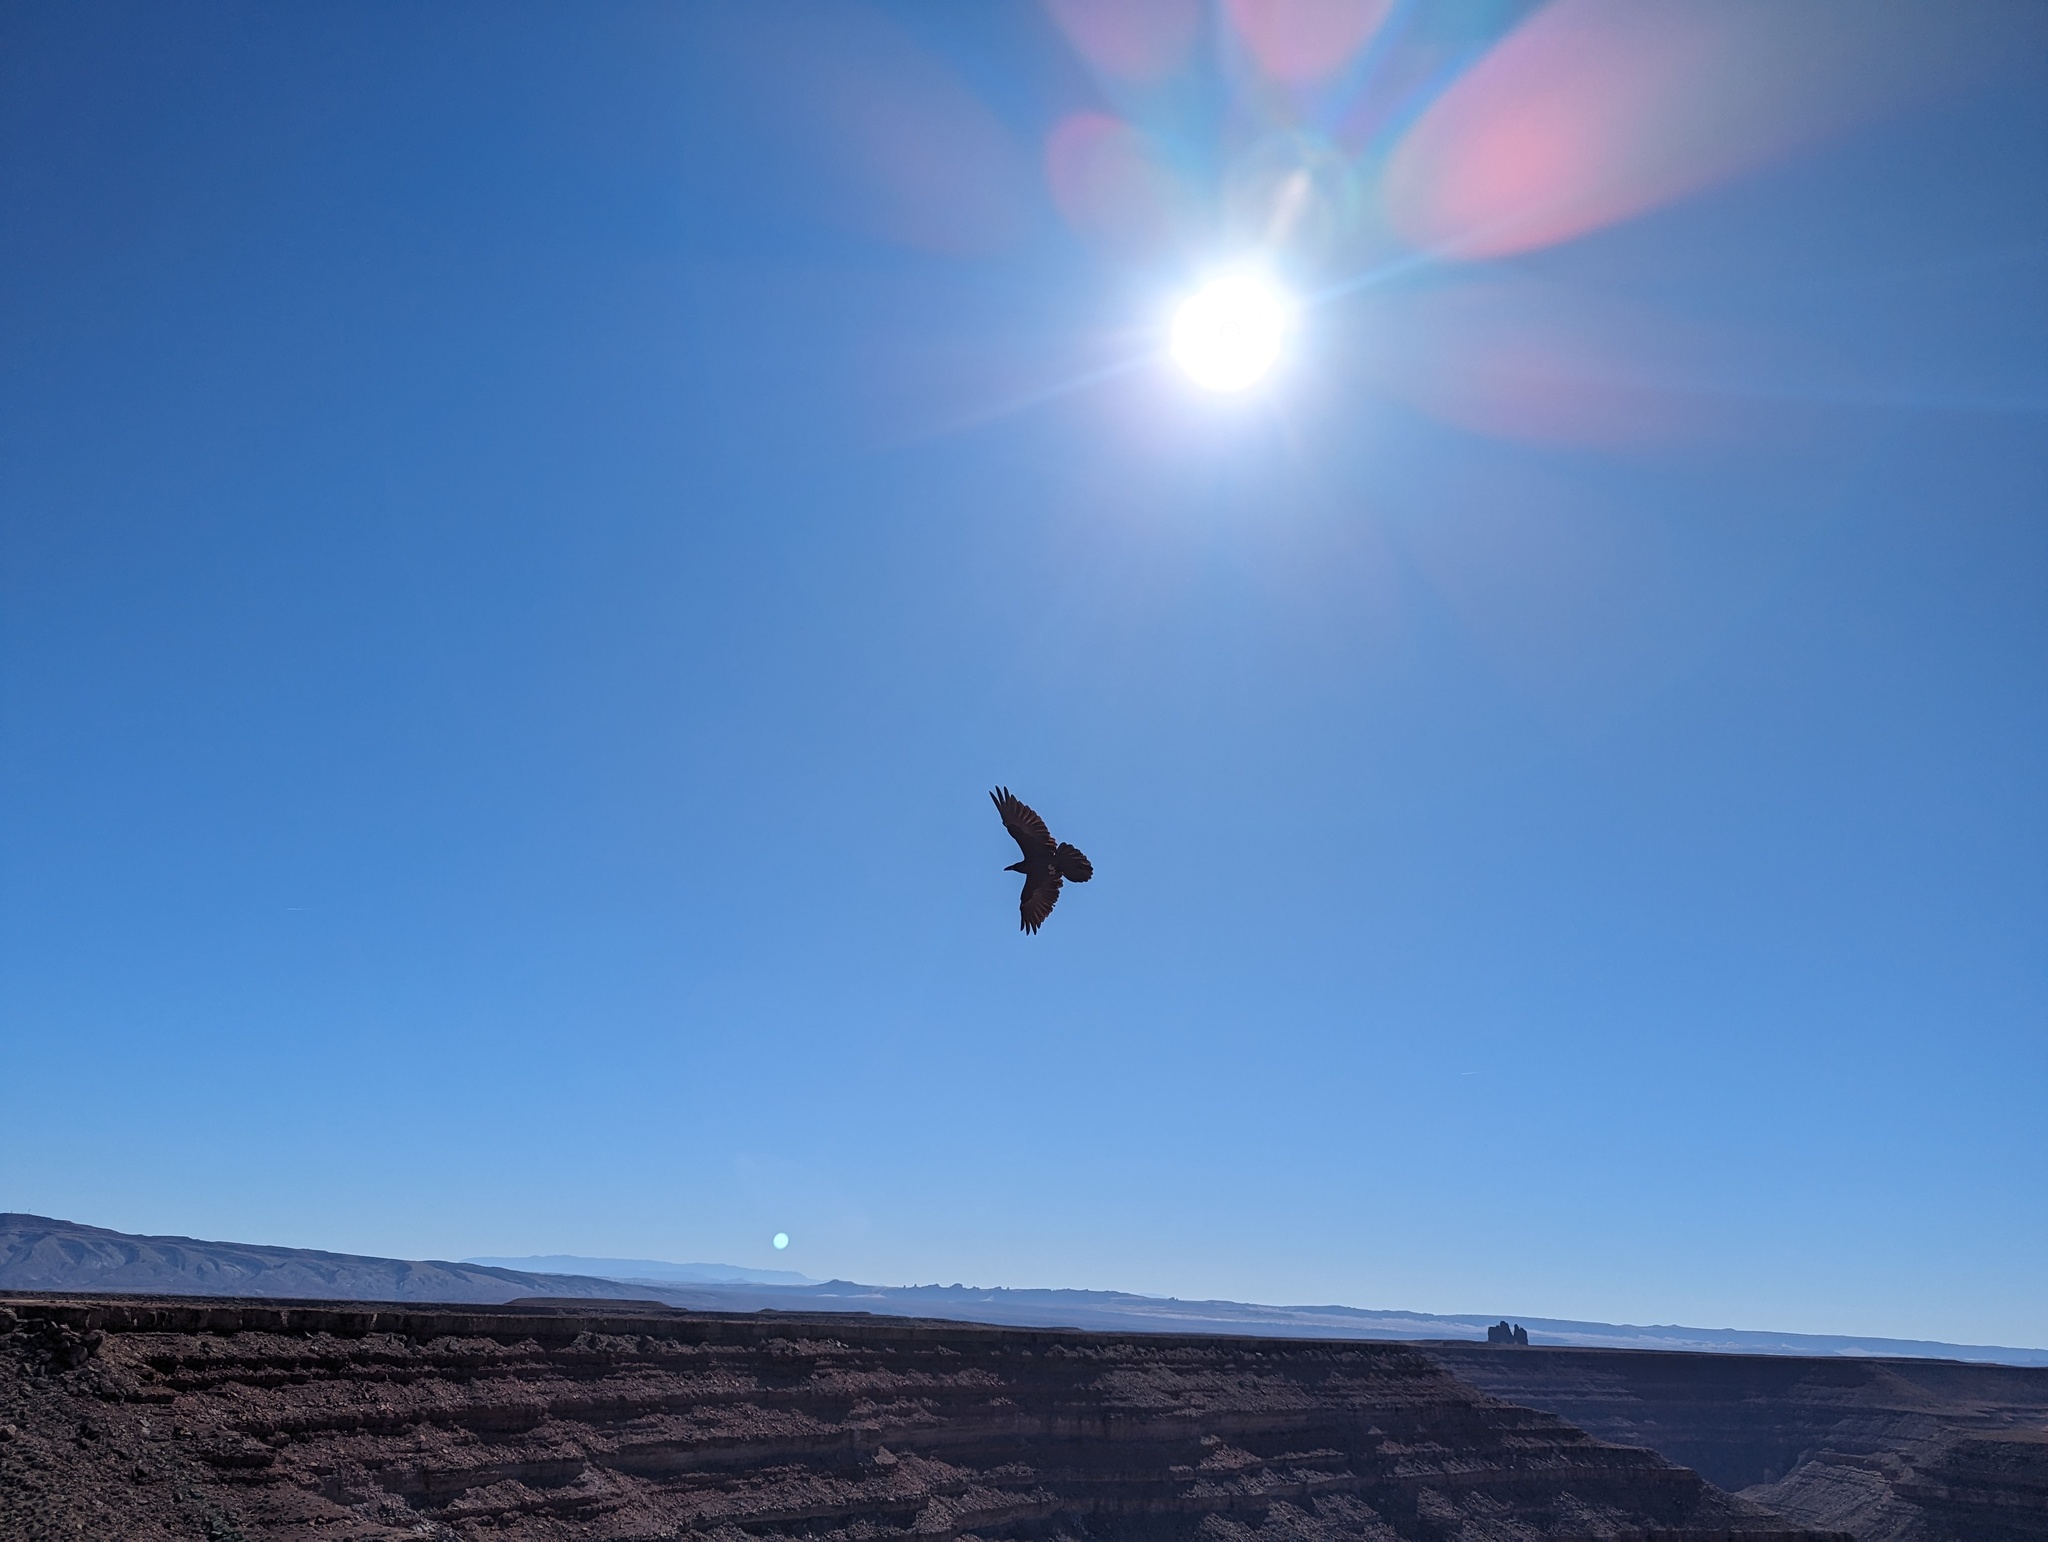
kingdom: Animalia
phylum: Chordata
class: Aves
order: Passeriformes
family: Corvidae
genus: Corvus
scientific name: Corvus corax
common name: Common raven
